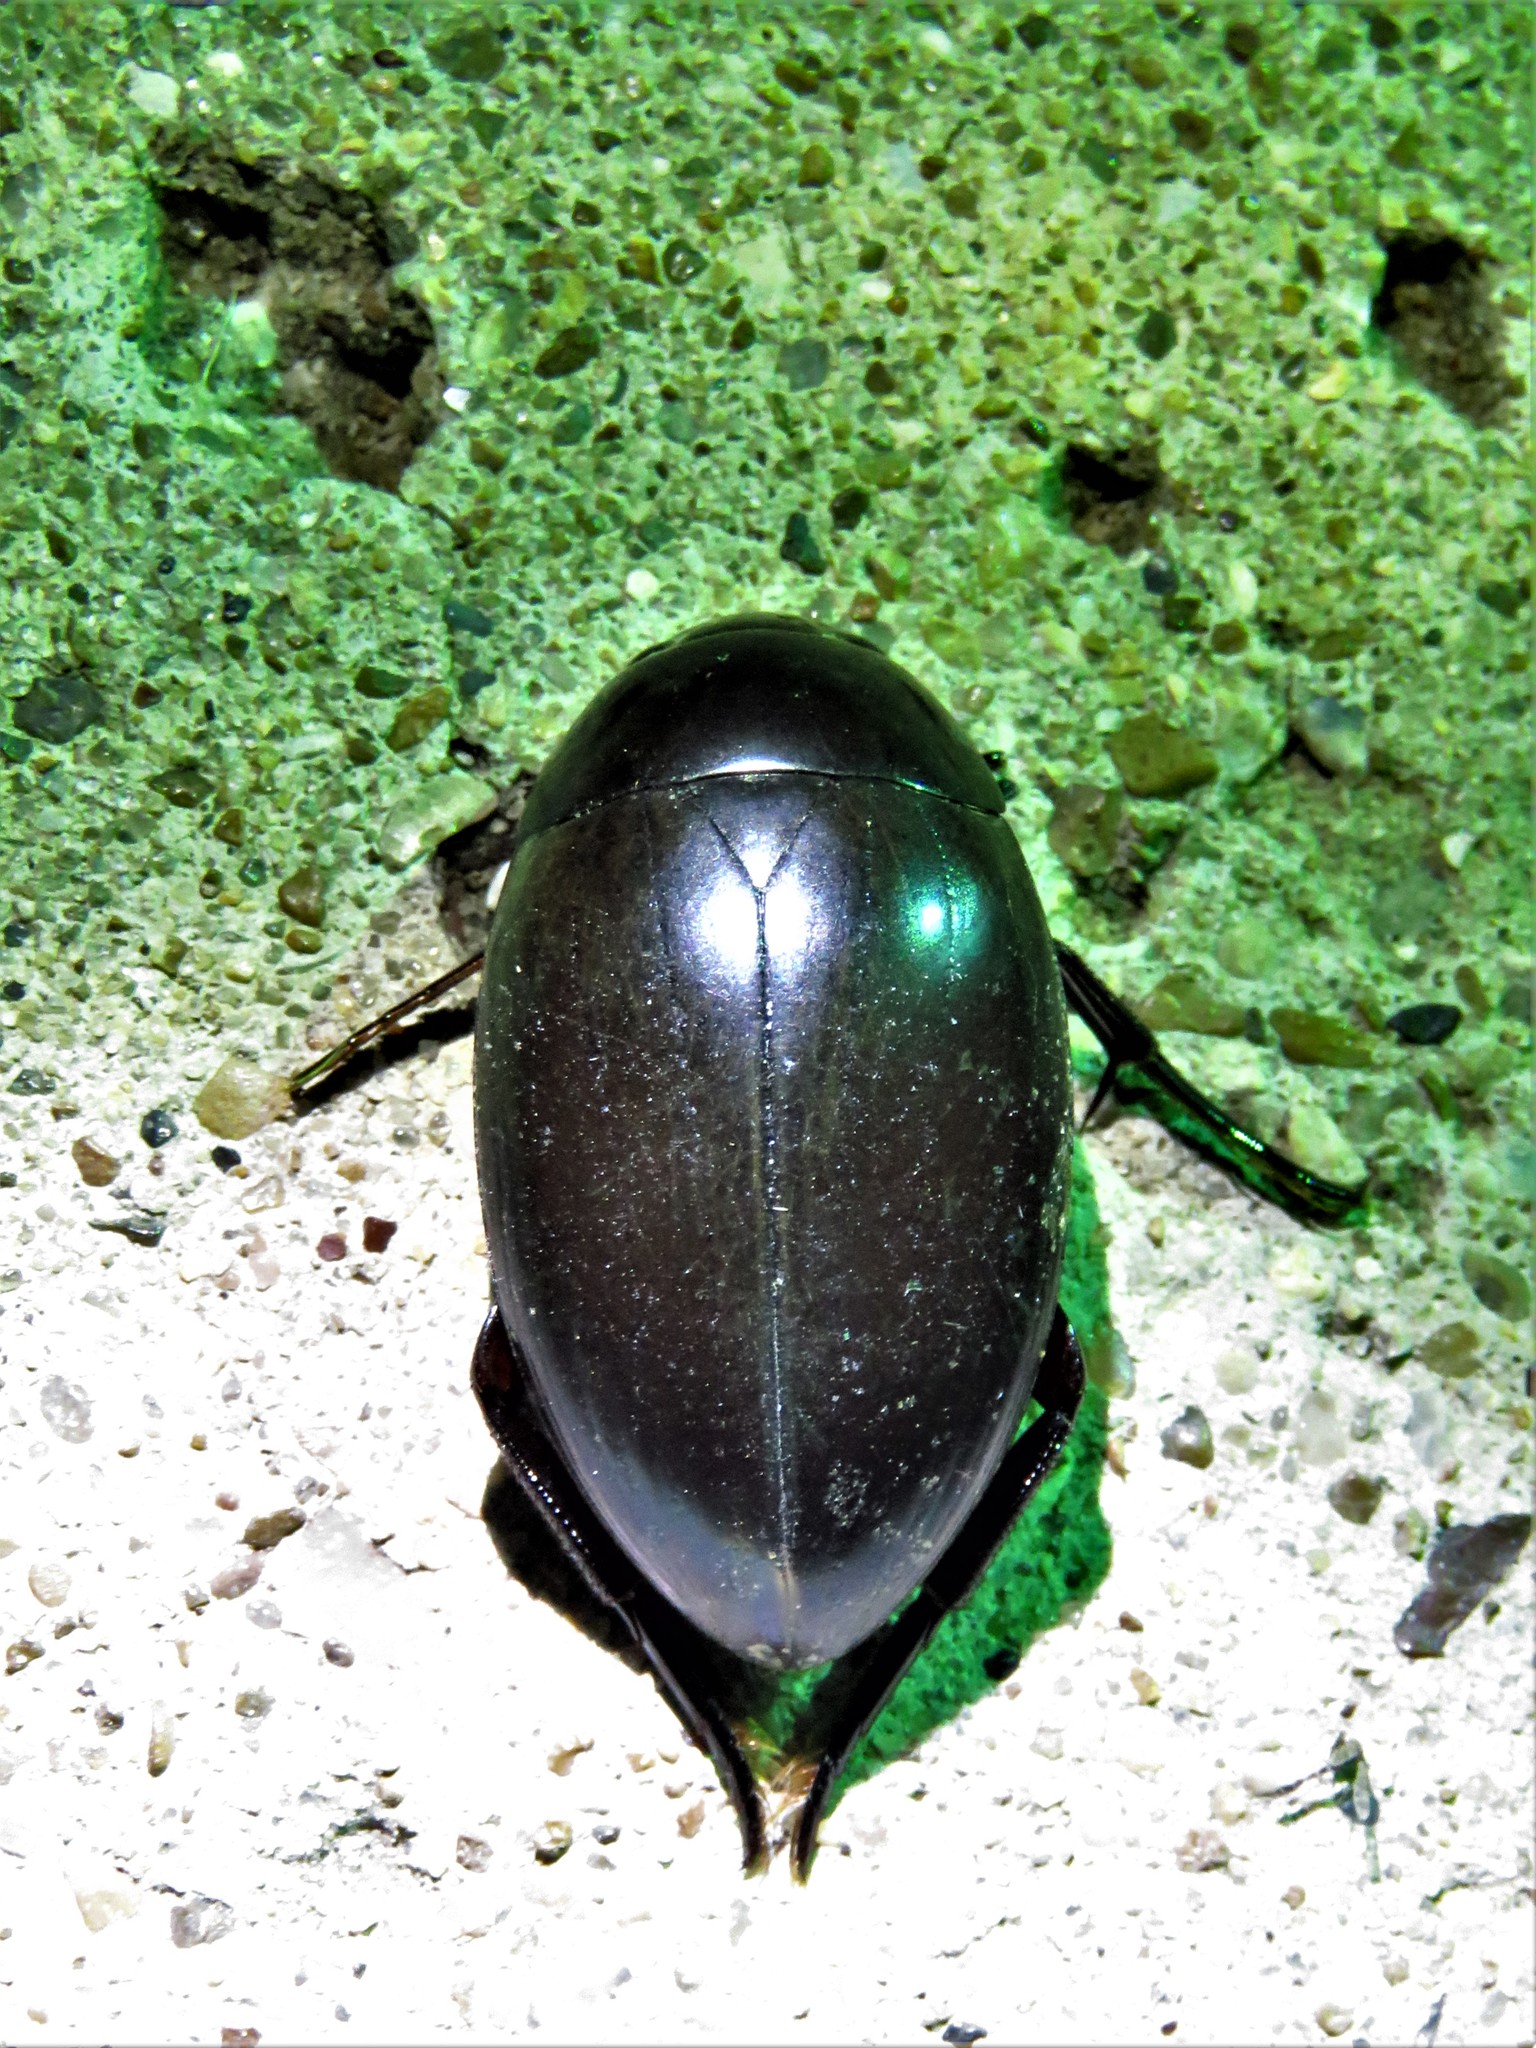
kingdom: Animalia
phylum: Arthropoda
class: Insecta
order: Coleoptera
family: Hydrophilidae
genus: Hydrophilus
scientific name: Hydrophilus ovatus
